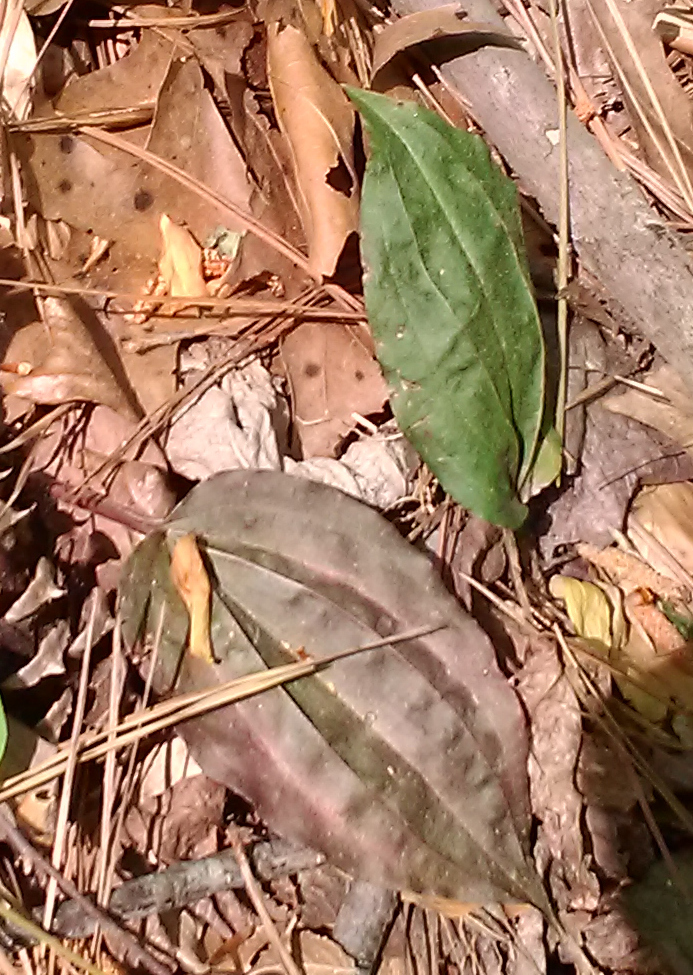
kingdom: Plantae
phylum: Tracheophyta
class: Liliopsida
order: Asparagales
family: Orchidaceae
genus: Tipularia
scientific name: Tipularia discolor
